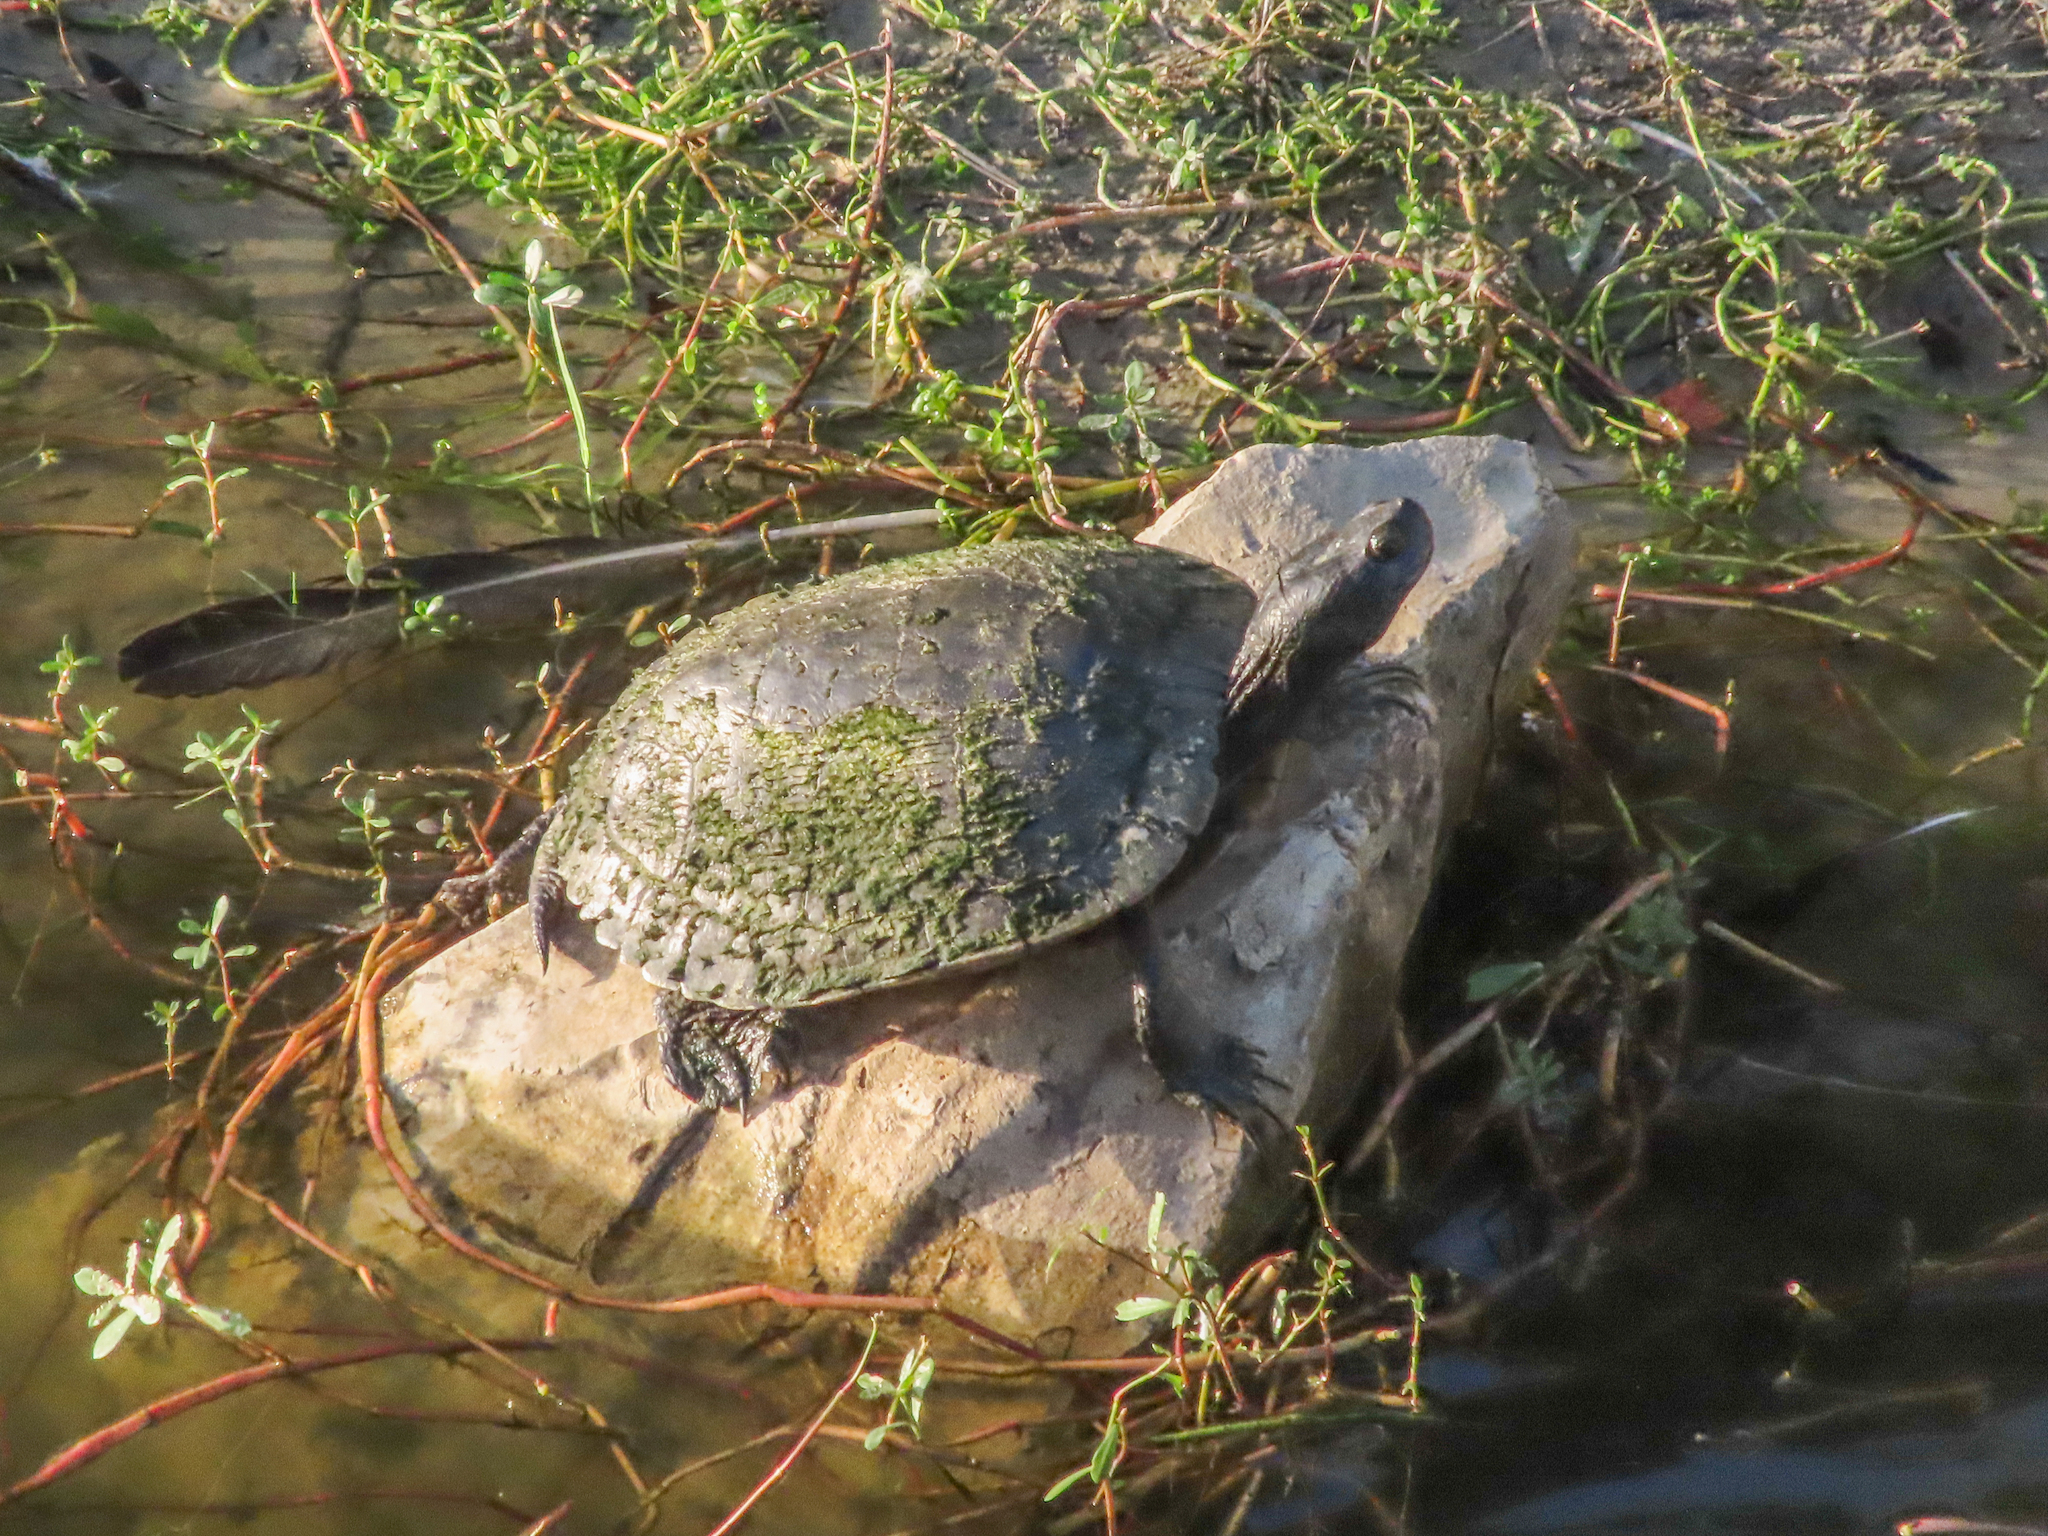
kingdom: Animalia
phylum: Chordata
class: Testudines
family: Emydidae
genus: Trachemys
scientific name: Trachemys scripta
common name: Slider
